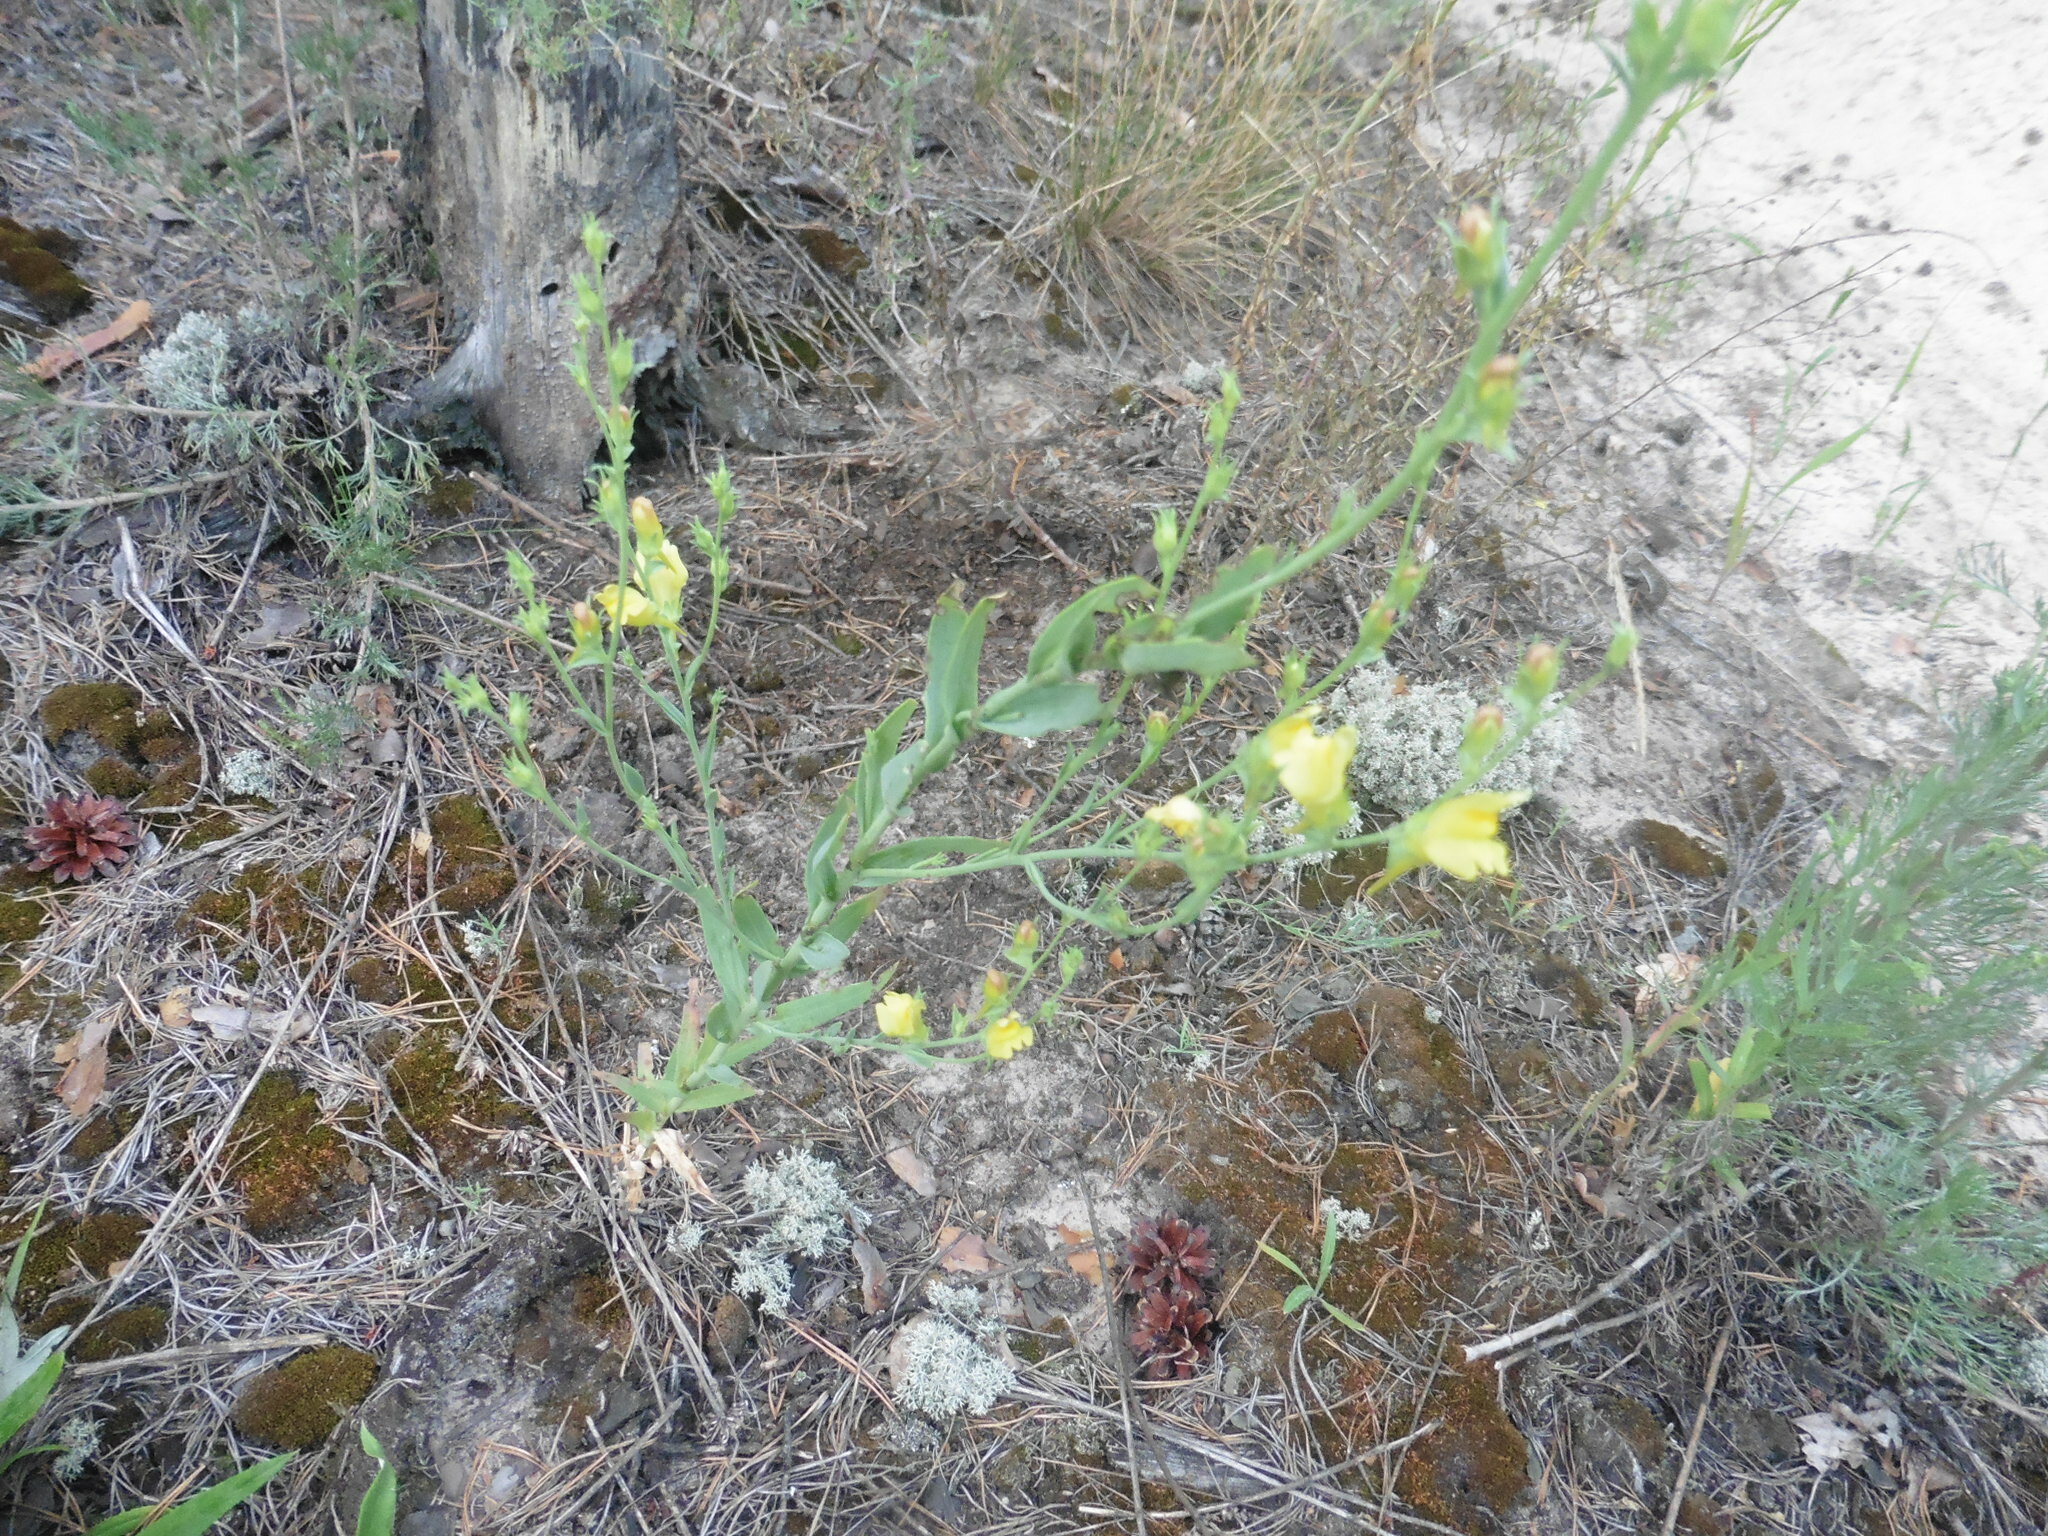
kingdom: Plantae
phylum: Tracheophyta
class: Magnoliopsida
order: Lamiales
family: Plantaginaceae
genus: Linaria
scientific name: Linaria genistifolia
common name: Broomleaf toadflax
